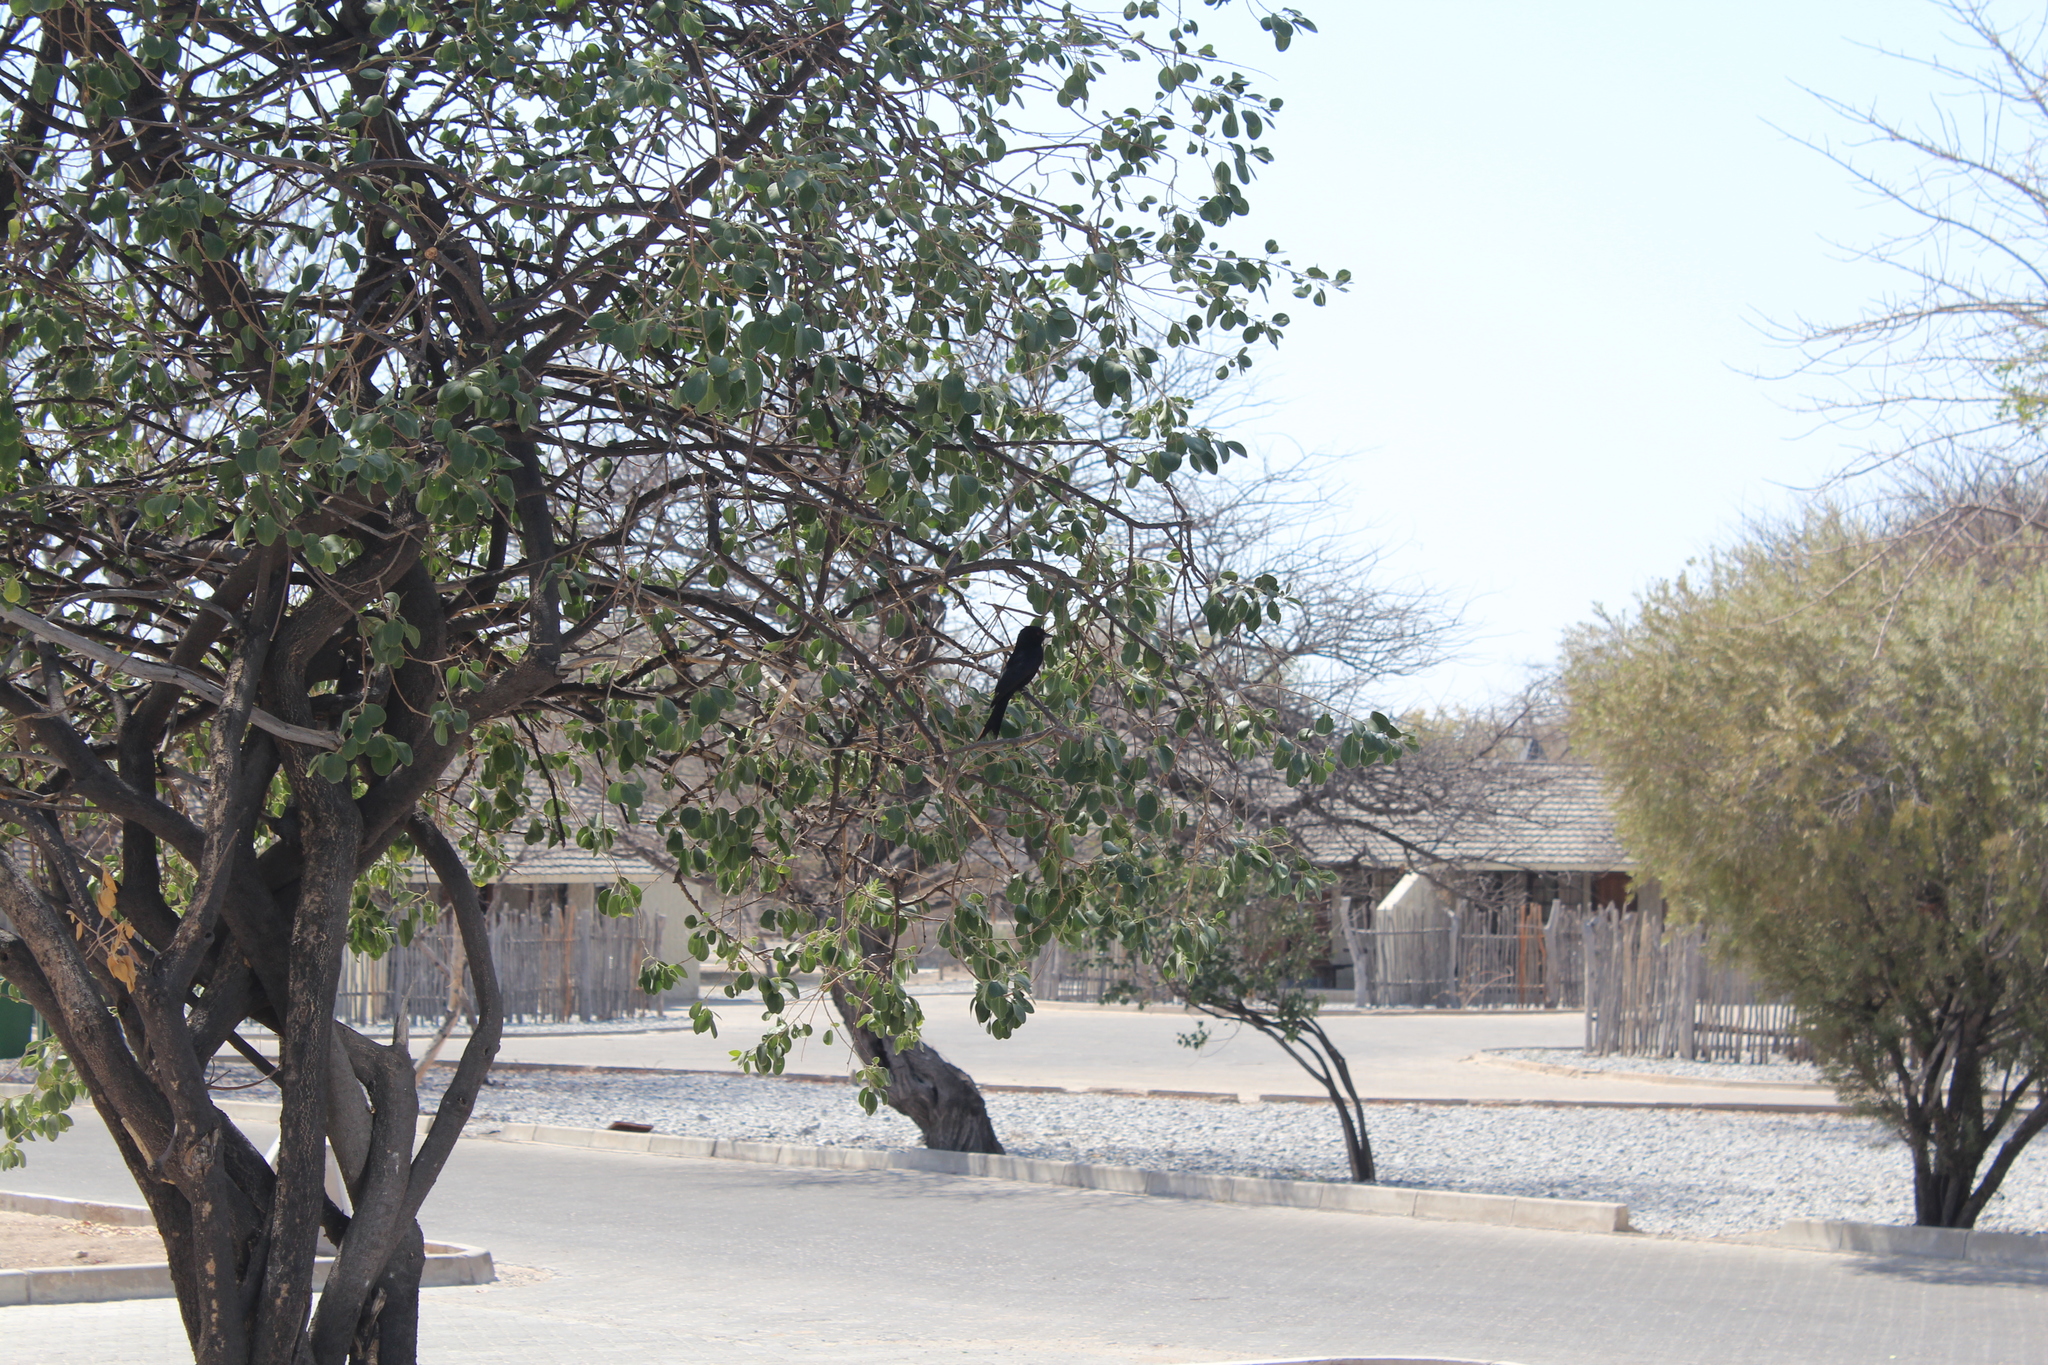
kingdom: Animalia
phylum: Chordata
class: Aves
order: Passeriformes
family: Dicruridae
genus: Dicrurus
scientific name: Dicrurus adsimilis
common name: Fork-tailed drongo
